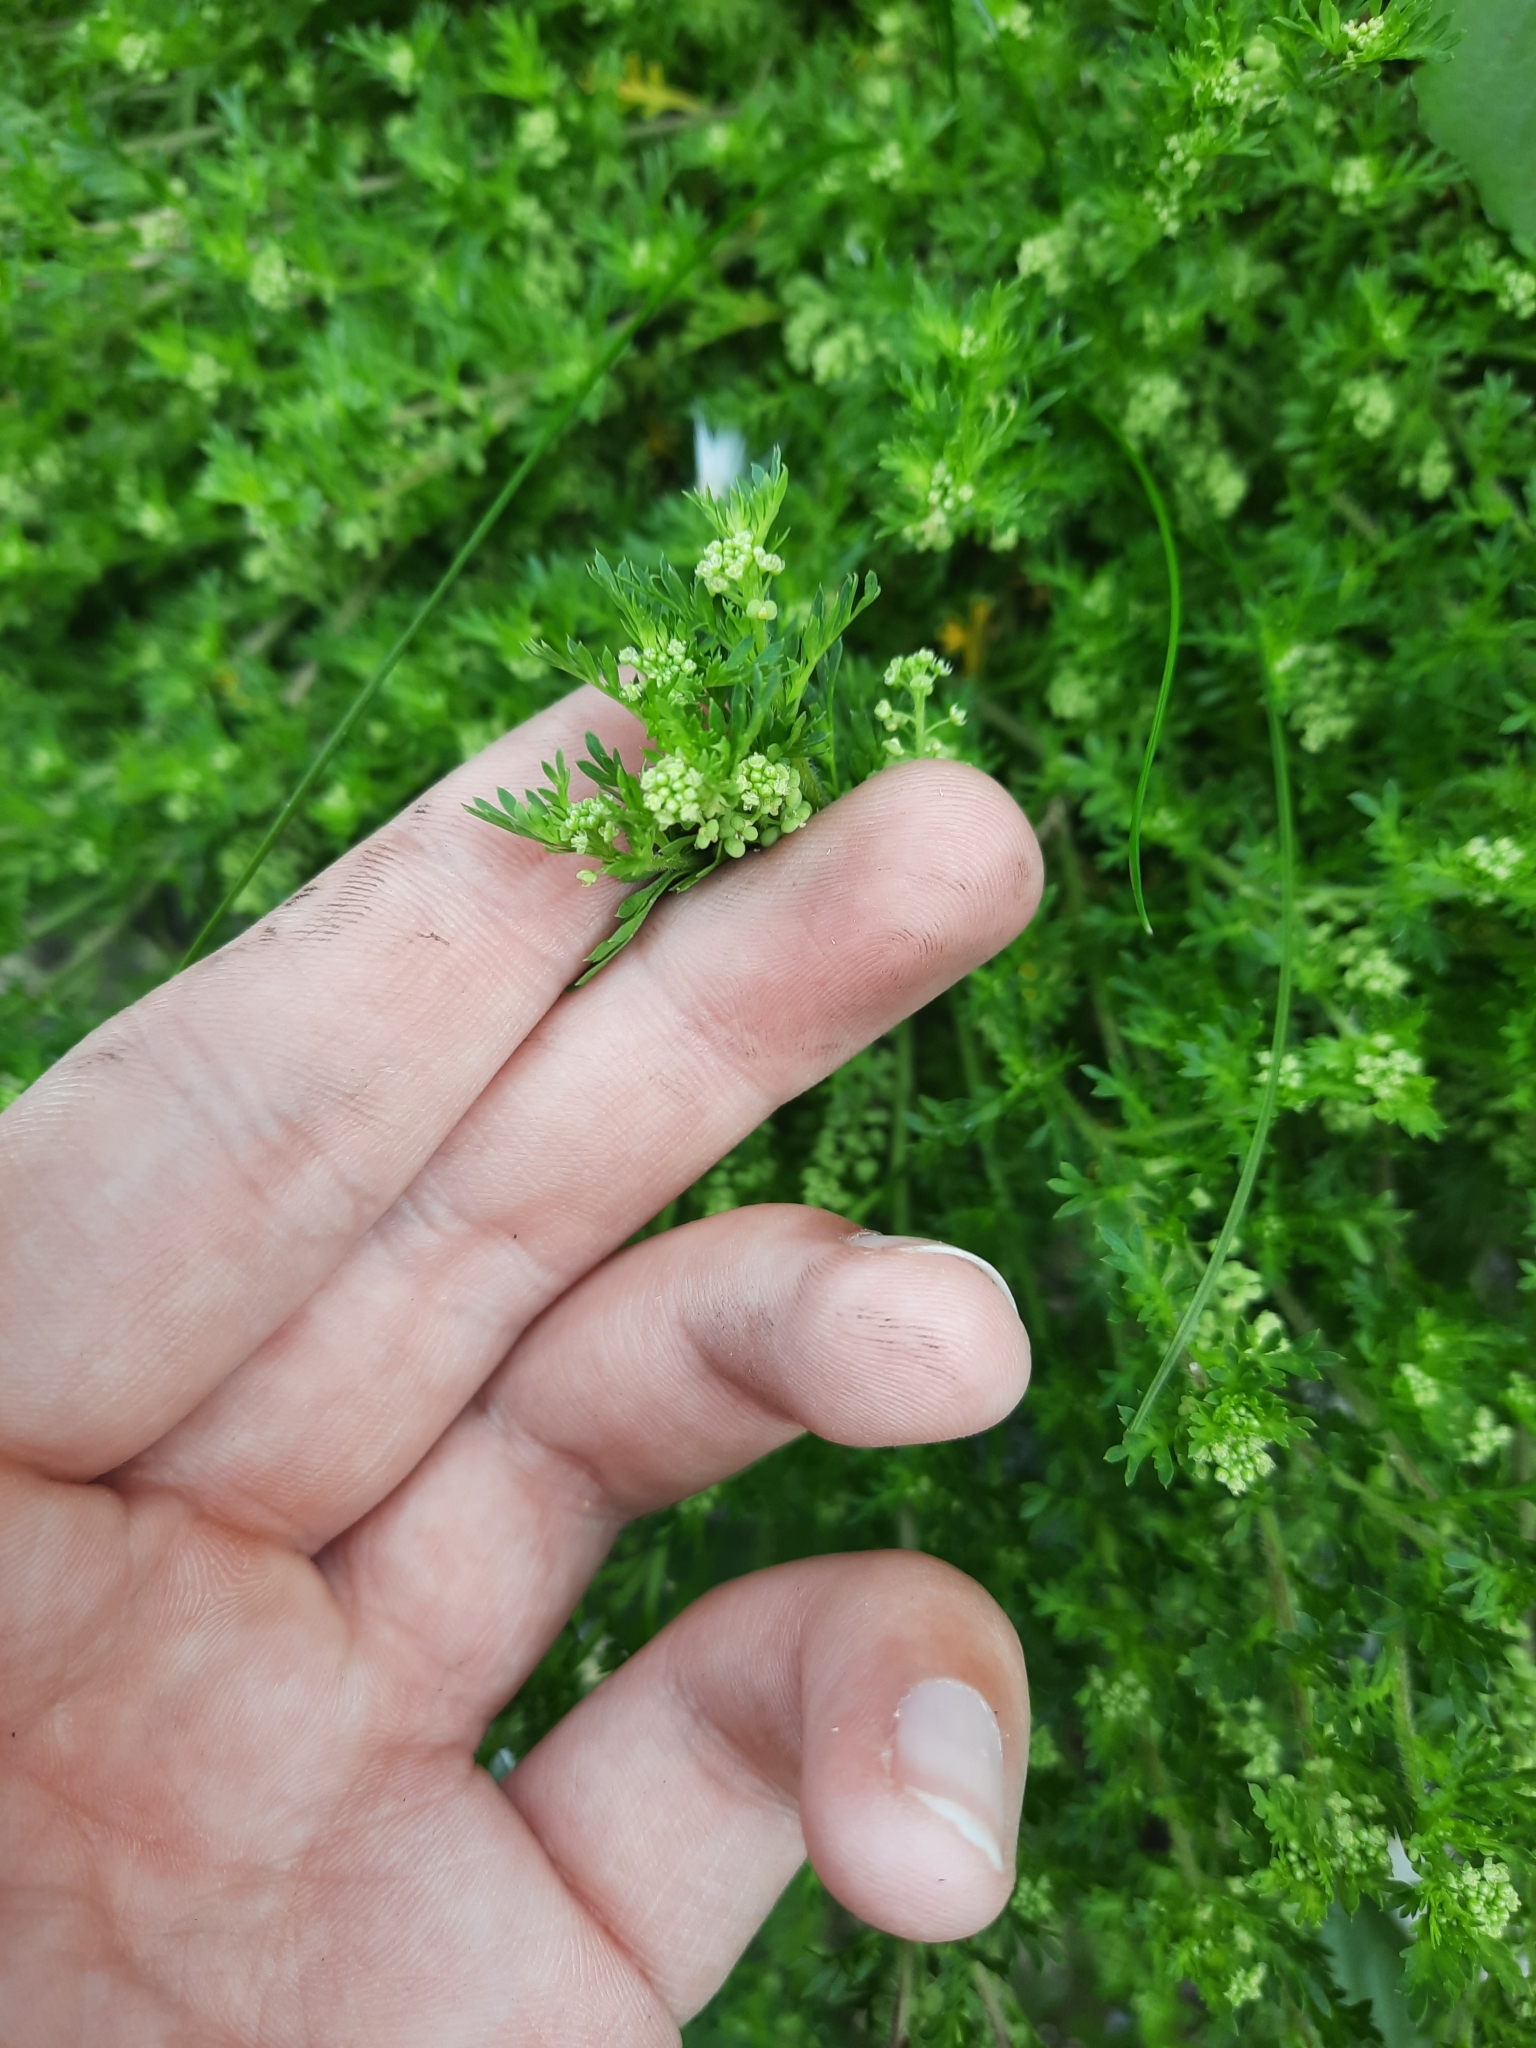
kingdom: Plantae
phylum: Tracheophyta
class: Magnoliopsida
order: Brassicales
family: Brassicaceae
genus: Lepidium
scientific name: Lepidium didymum
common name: Lesser swinecress
